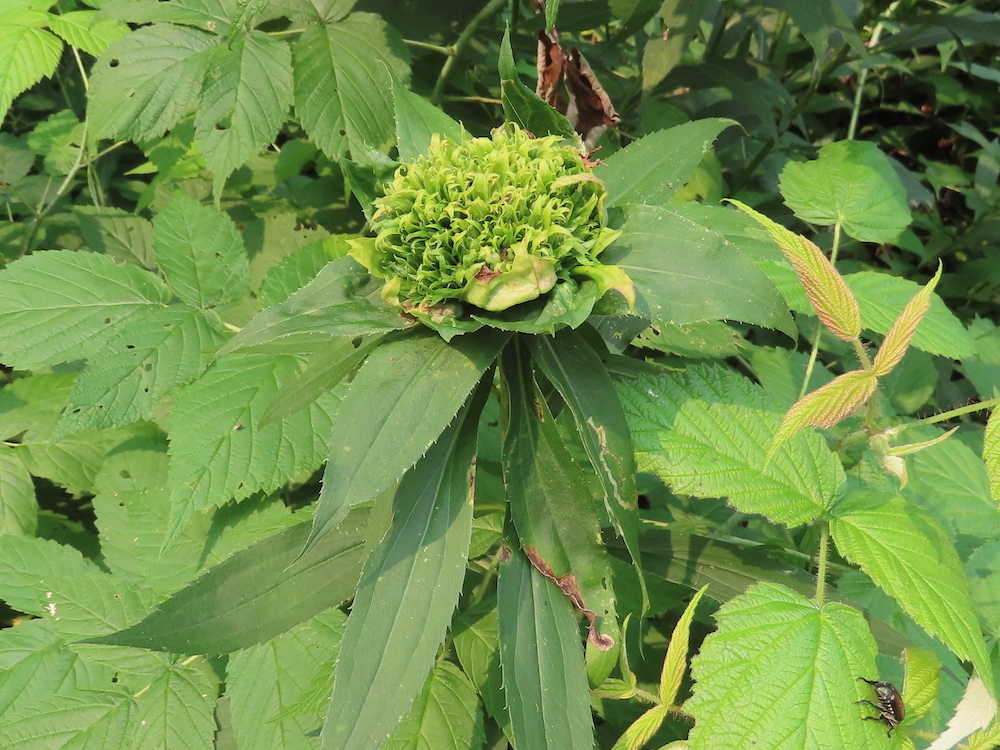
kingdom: Animalia
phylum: Arthropoda
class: Insecta
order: Diptera
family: Cecidomyiidae
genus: Rhopalomyia
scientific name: Rhopalomyia capitata
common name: Giant goldenrod bunch gall midge
